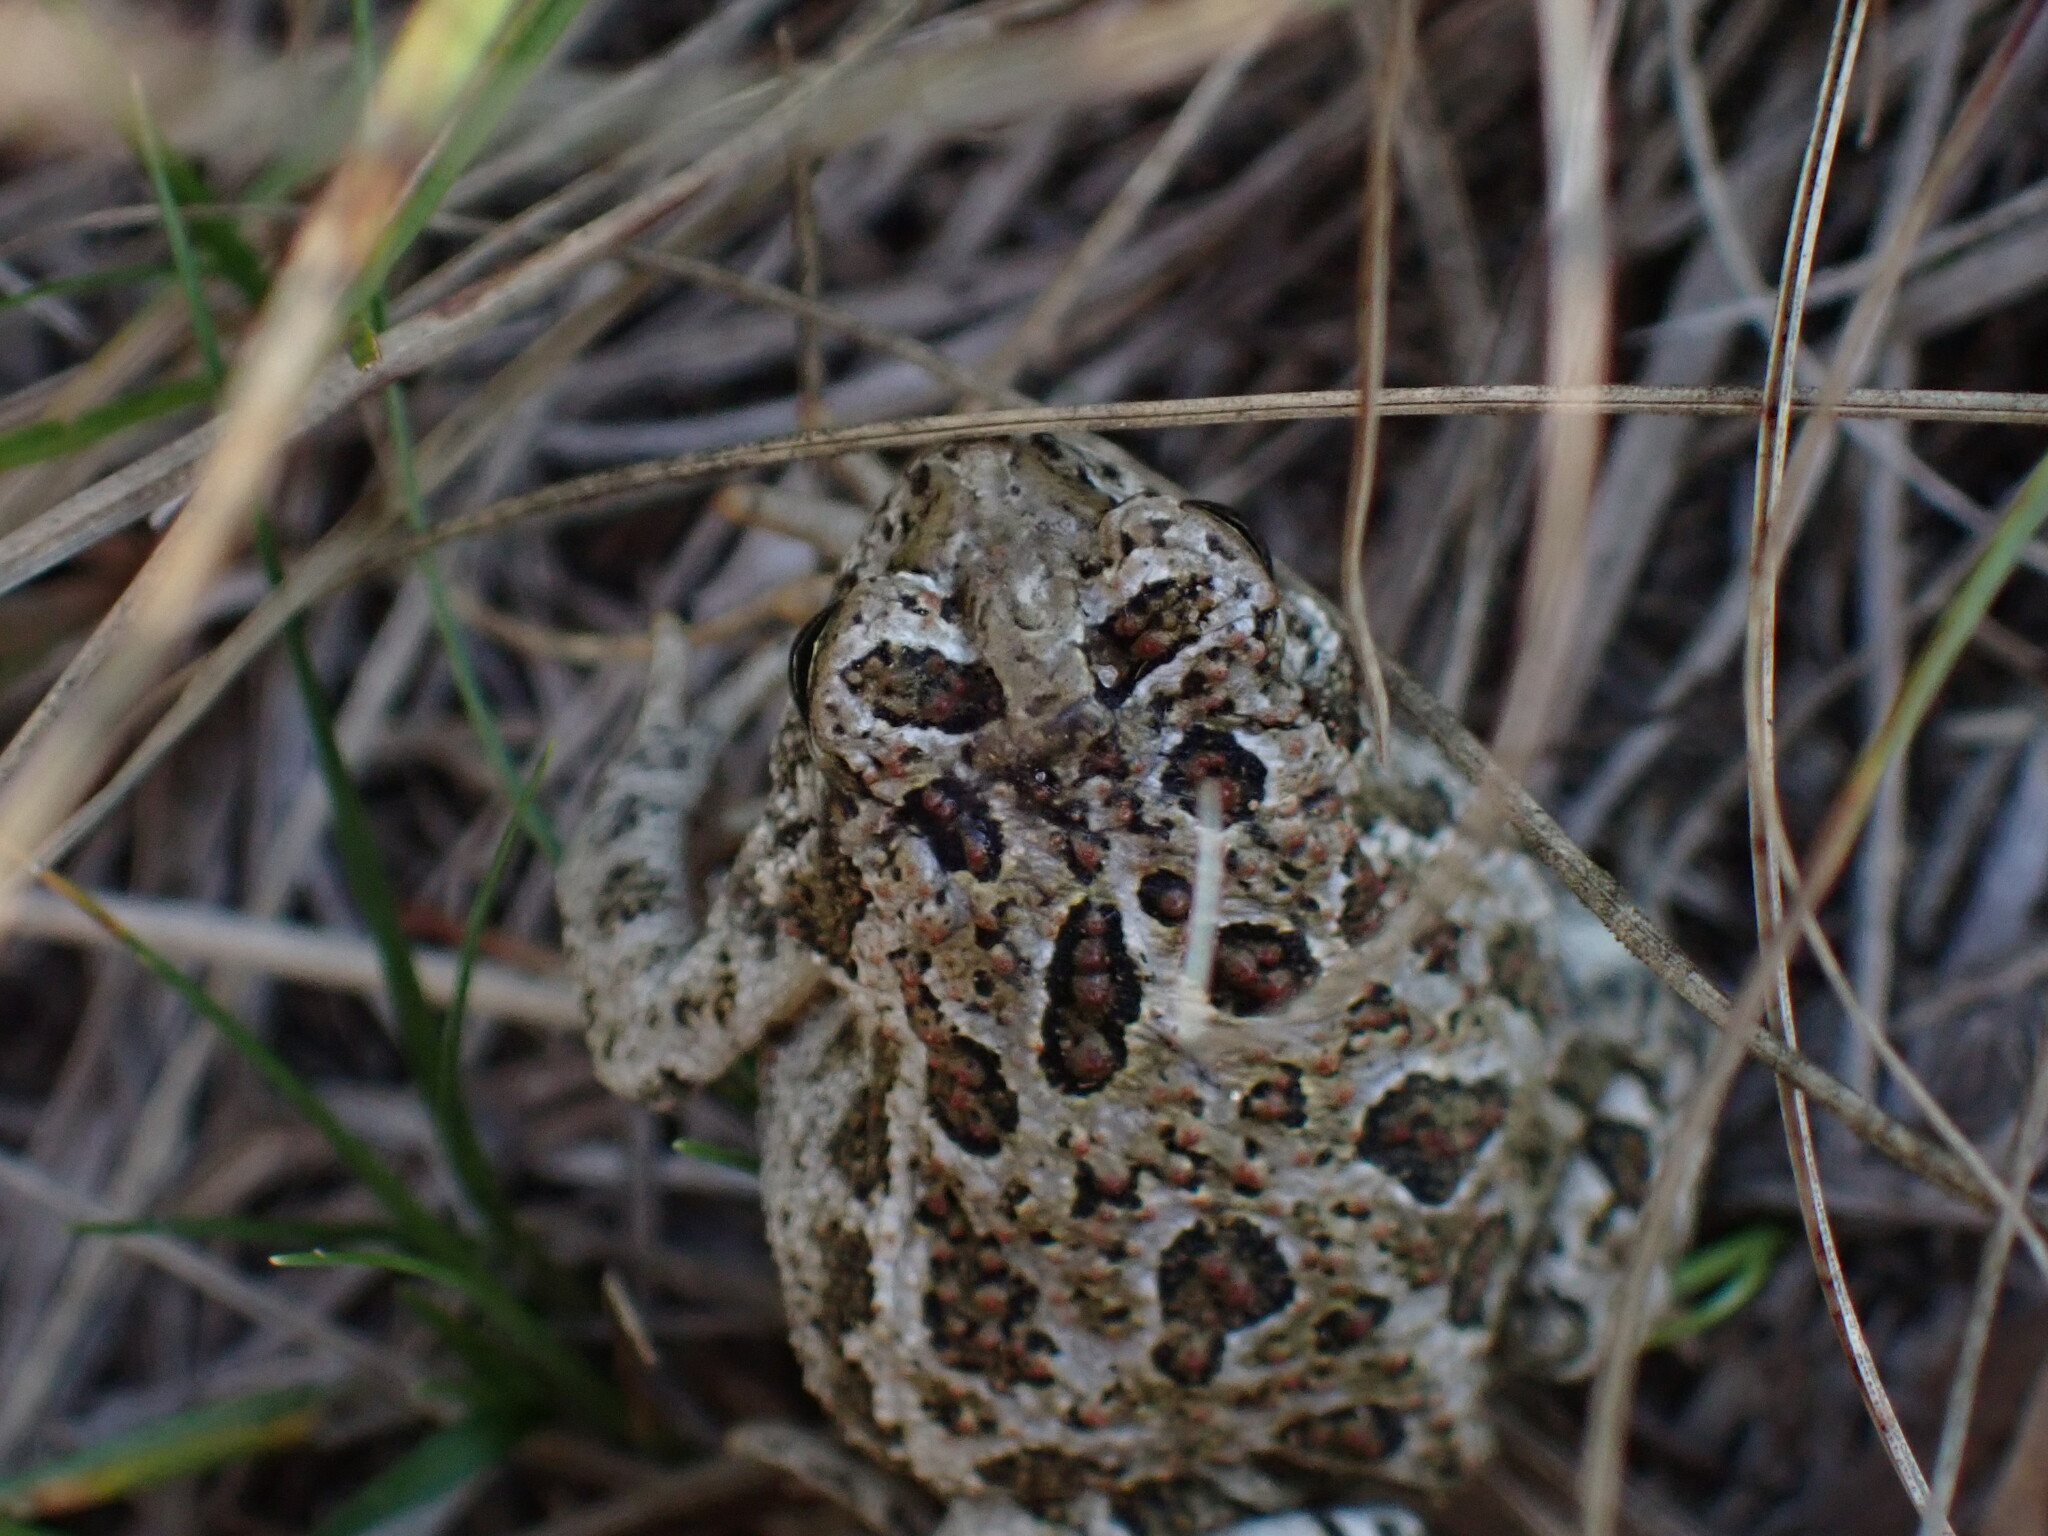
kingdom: Animalia
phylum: Chordata
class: Amphibia
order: Anura
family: Bufonidae
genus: Anaxyrus
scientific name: Anaxyrus hemiophrys
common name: Canadian toad
